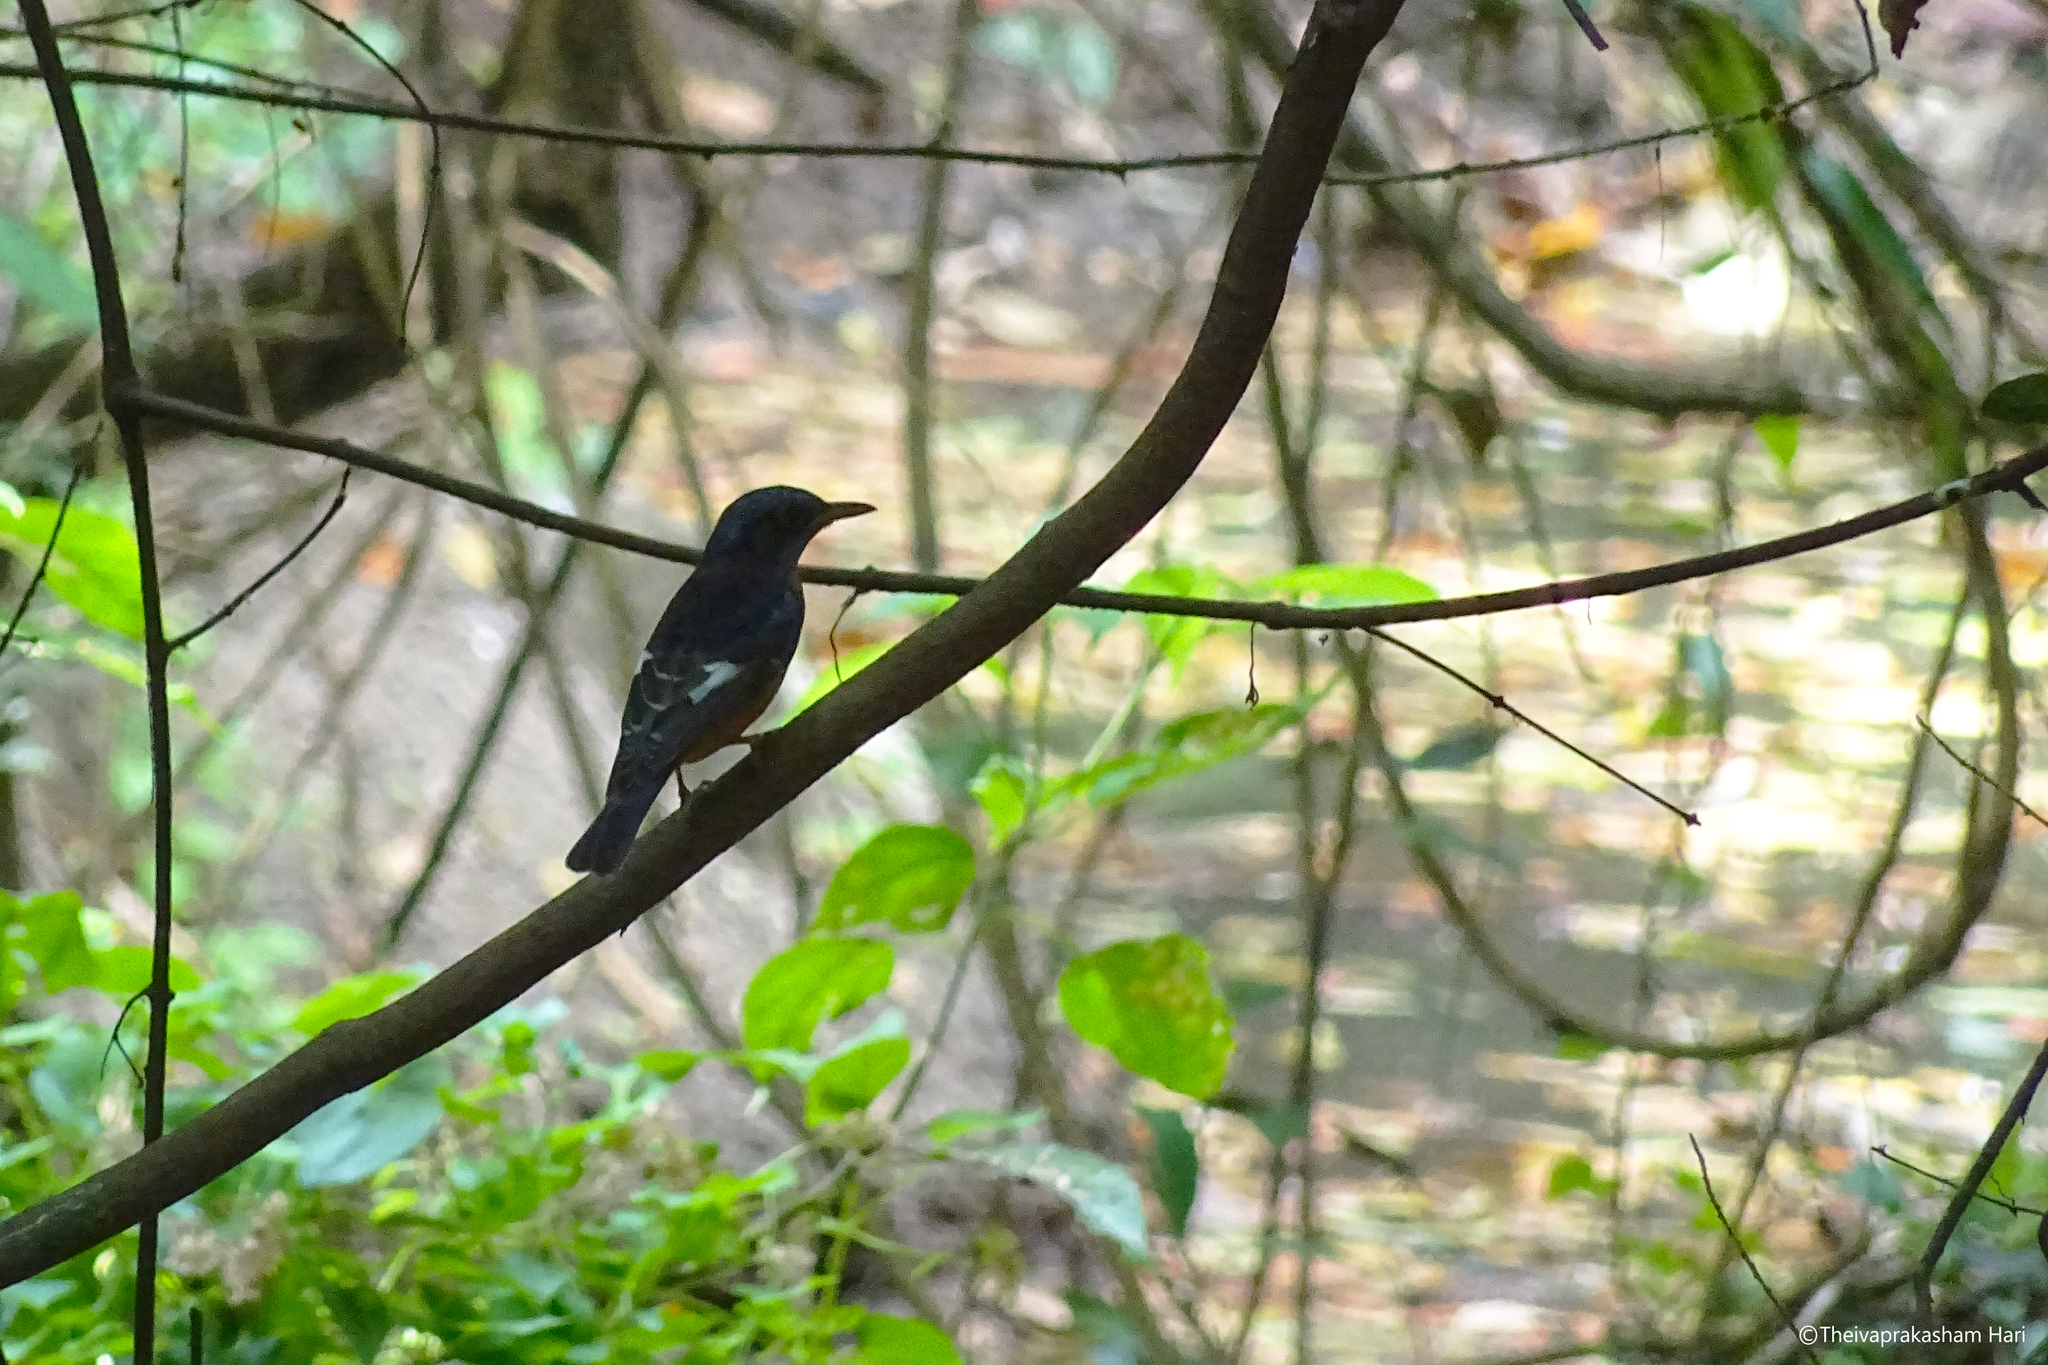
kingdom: Animalia
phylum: Chordata
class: Aves
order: Passeriformes
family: Muscicapidae
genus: Monticola
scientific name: Monticola cinclorhynchus
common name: Blue-capped rock thrush
